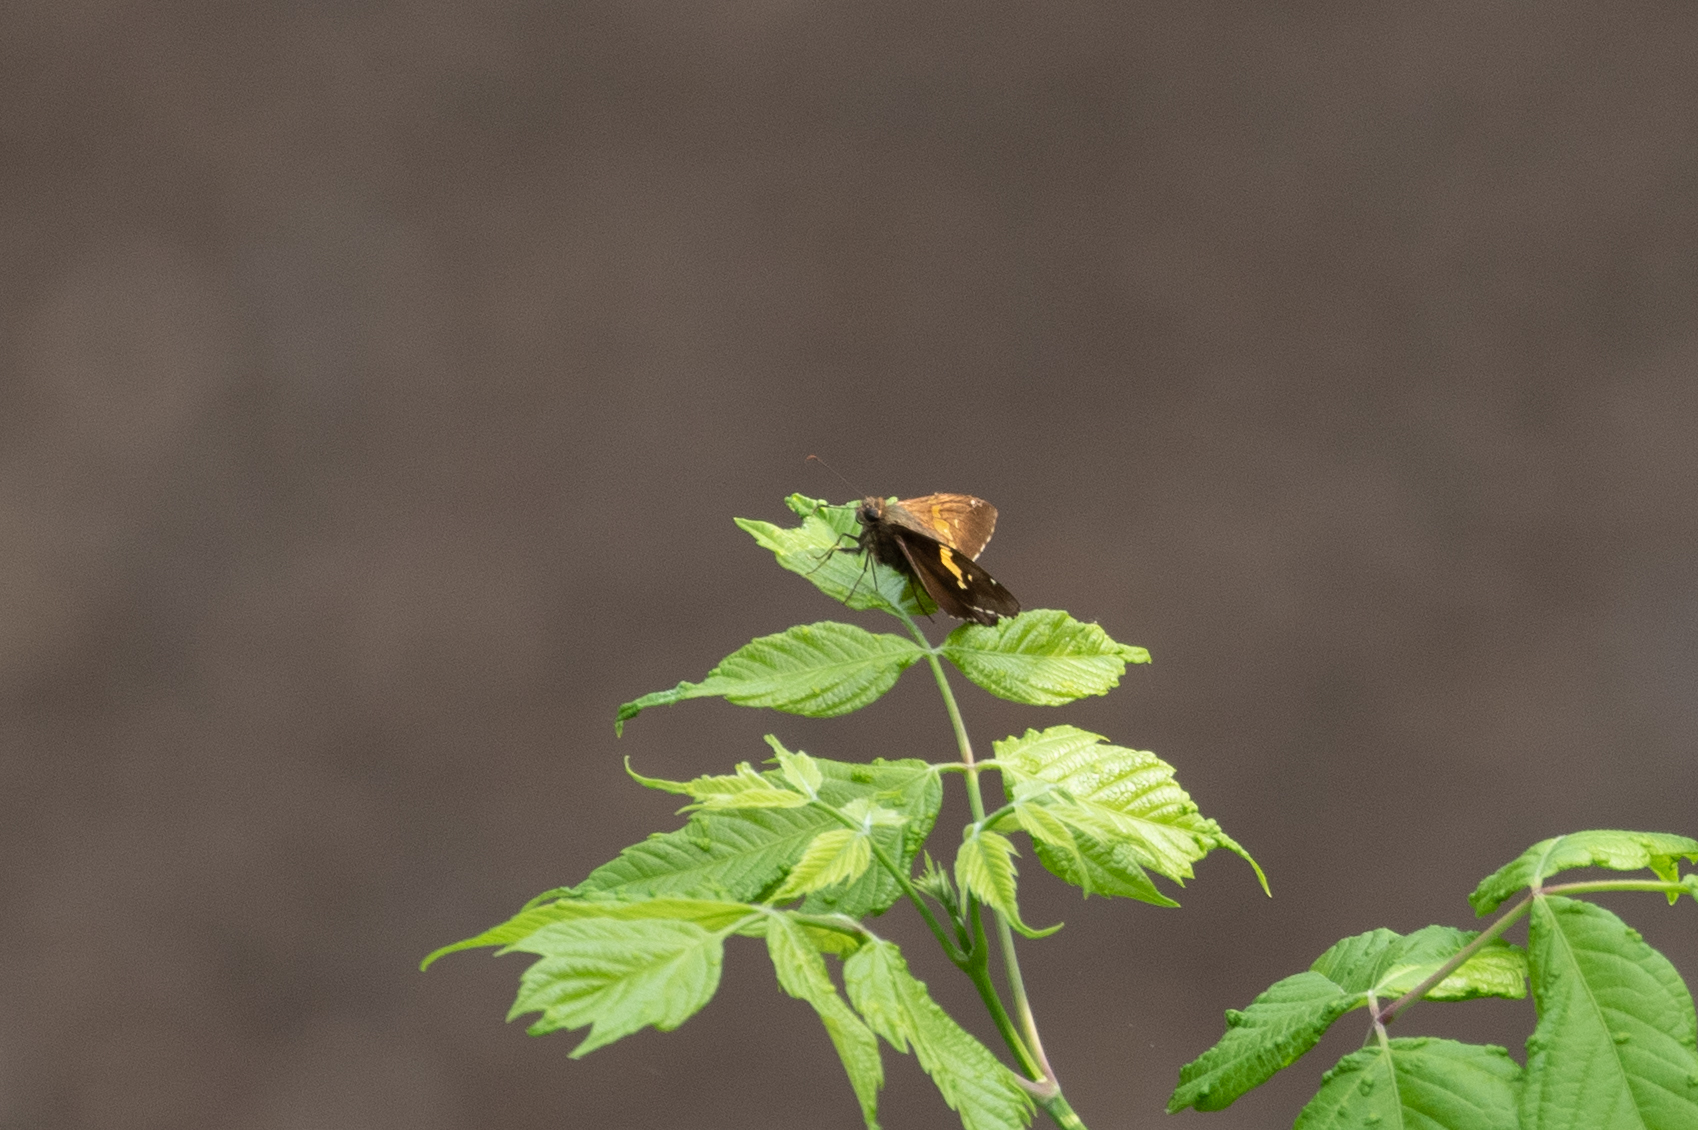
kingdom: Animalia
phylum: Arthropoda
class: Insecta
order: Lepidoptera
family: Hesperiidae
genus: Epargyreus
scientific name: Epargyreus clarus
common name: Silver-spotted skipper
